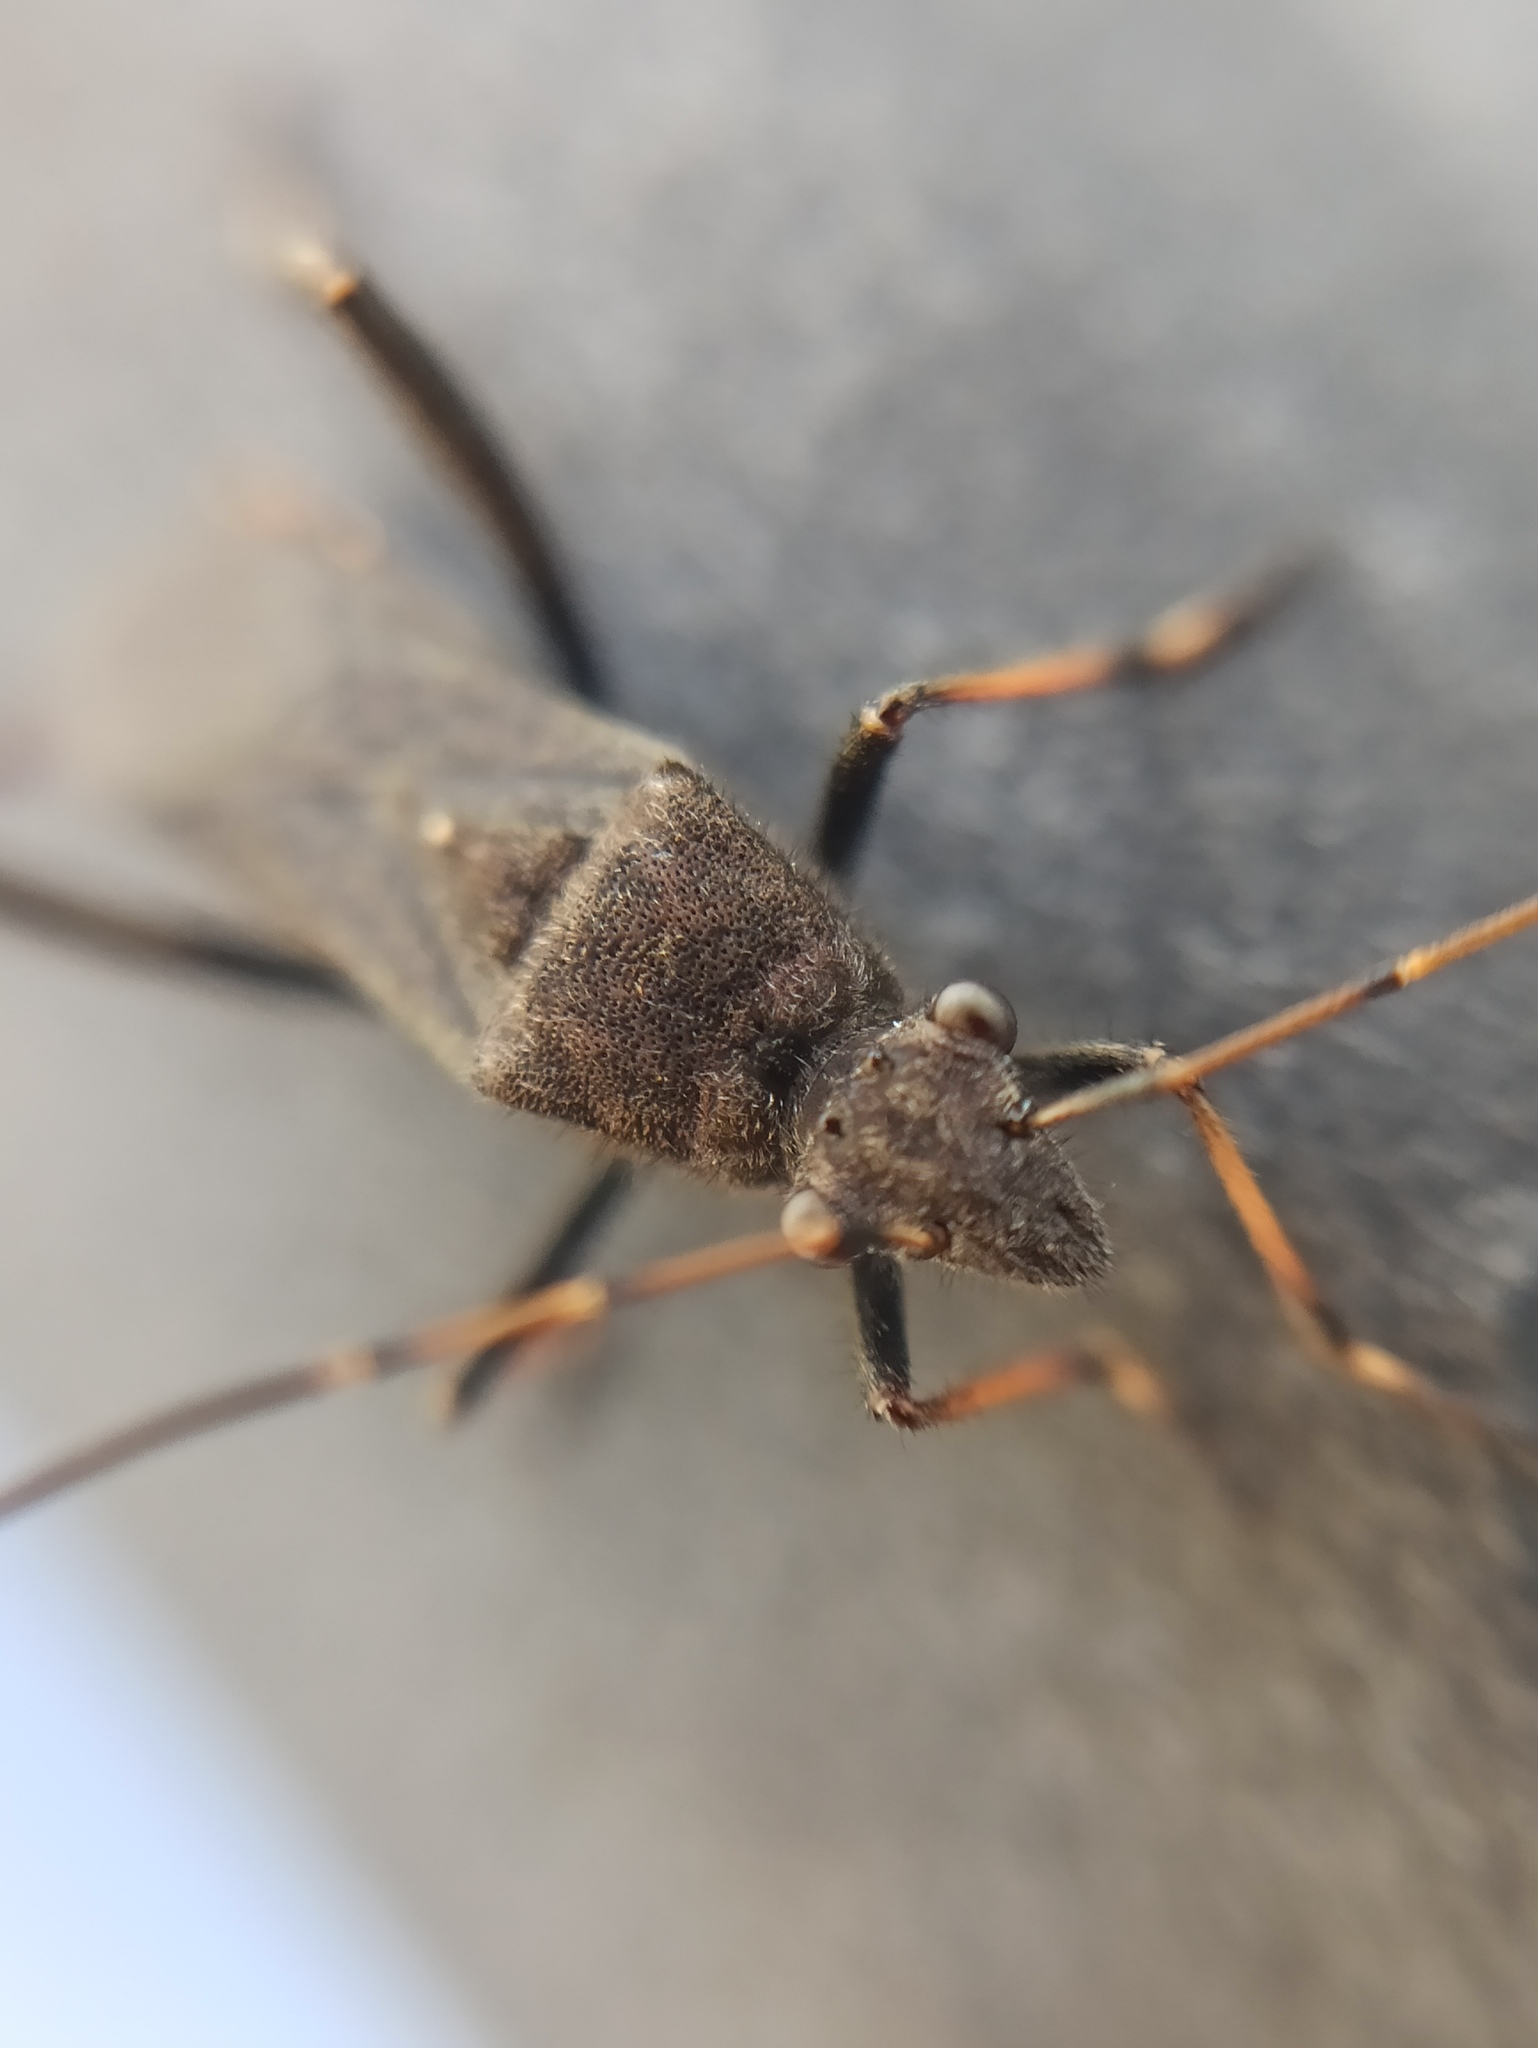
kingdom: Animalia
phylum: Arthropoda
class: Insecta
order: Hemiptera
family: Alydidae
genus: Alydus
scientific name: Alydus calcaratus
